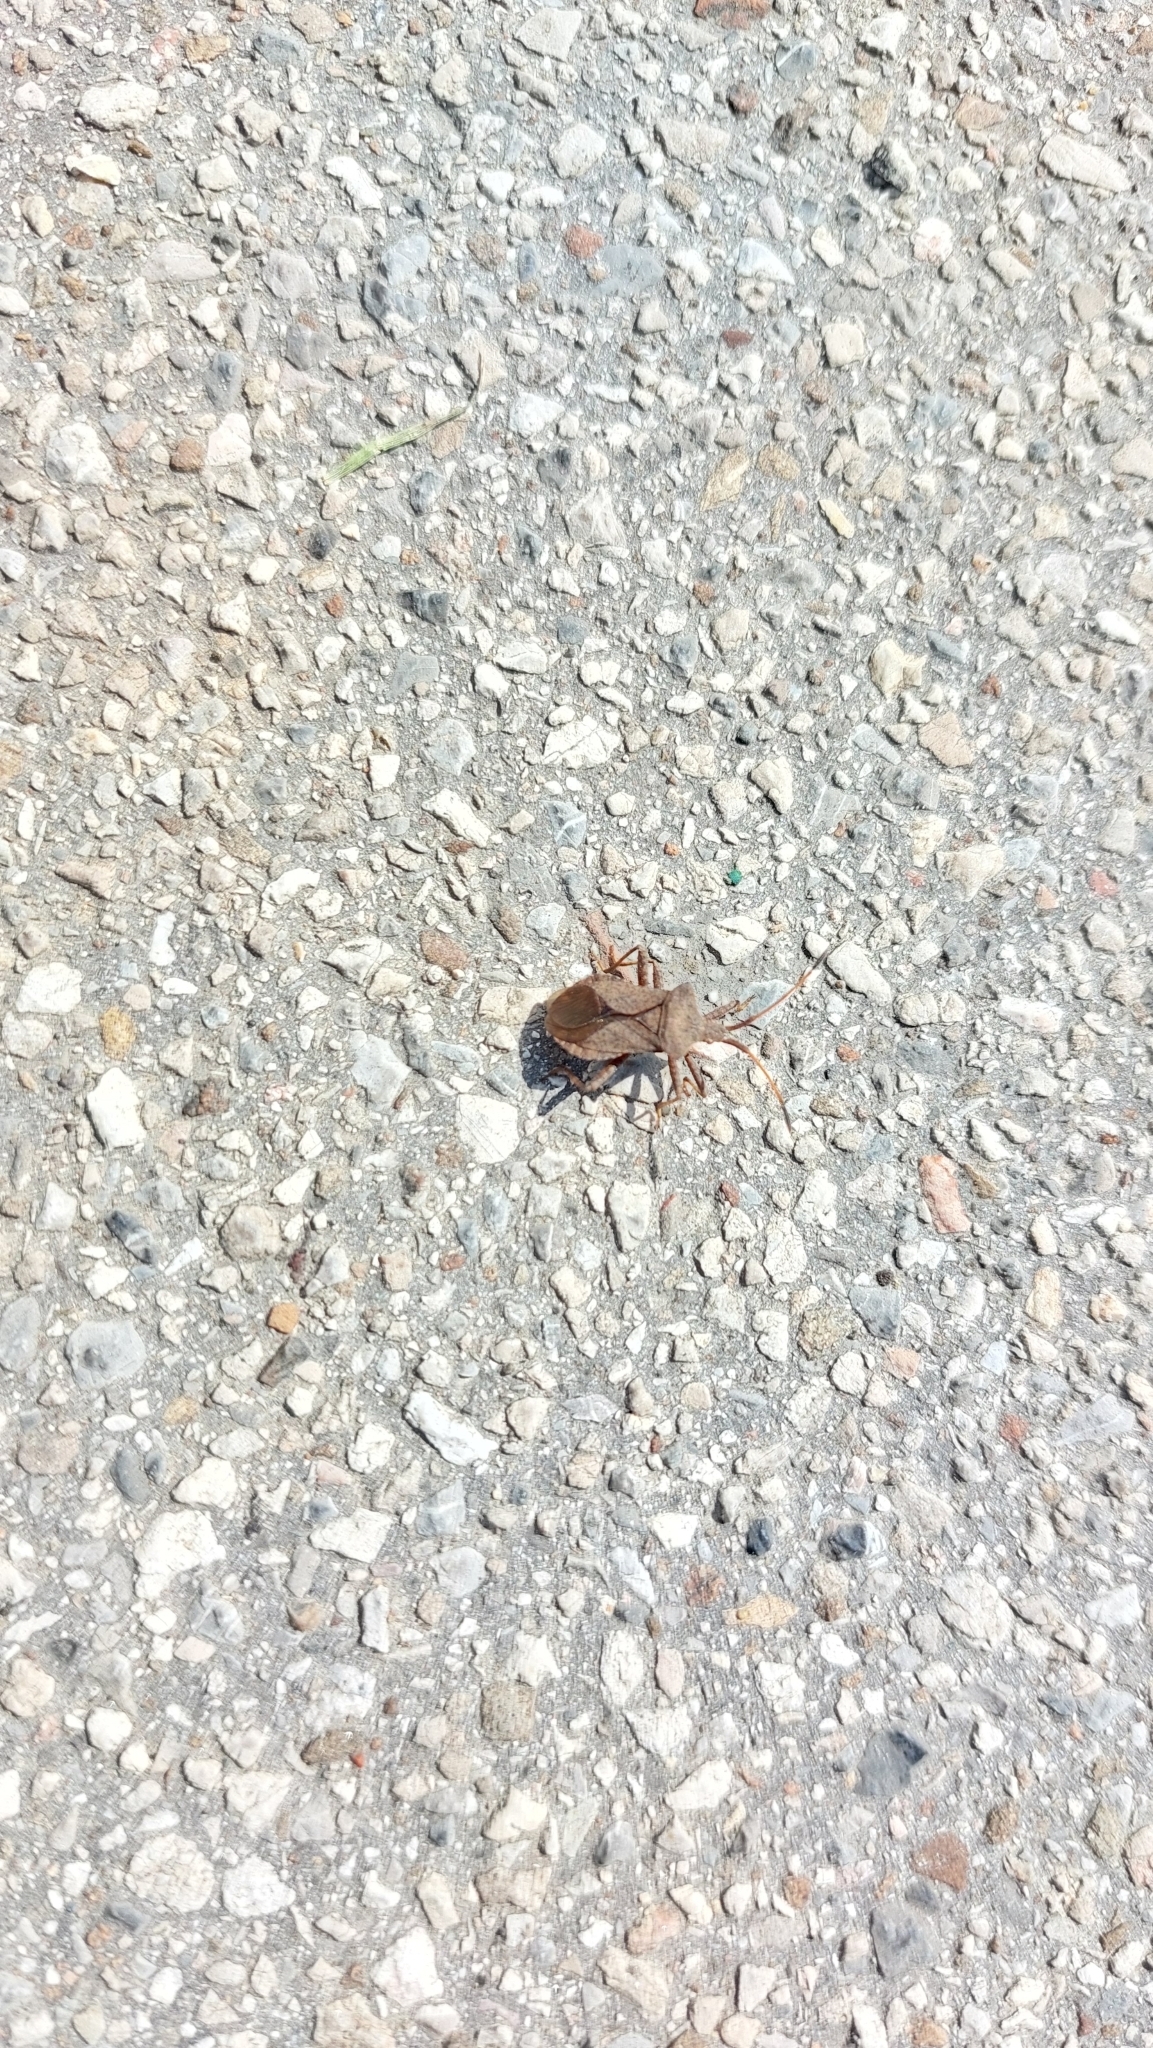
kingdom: Animalia
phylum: Arthropoda
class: Insecta
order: Hemiptera
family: Coreidae
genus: Coreus
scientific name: Coreus marginatus
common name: Dock bug
